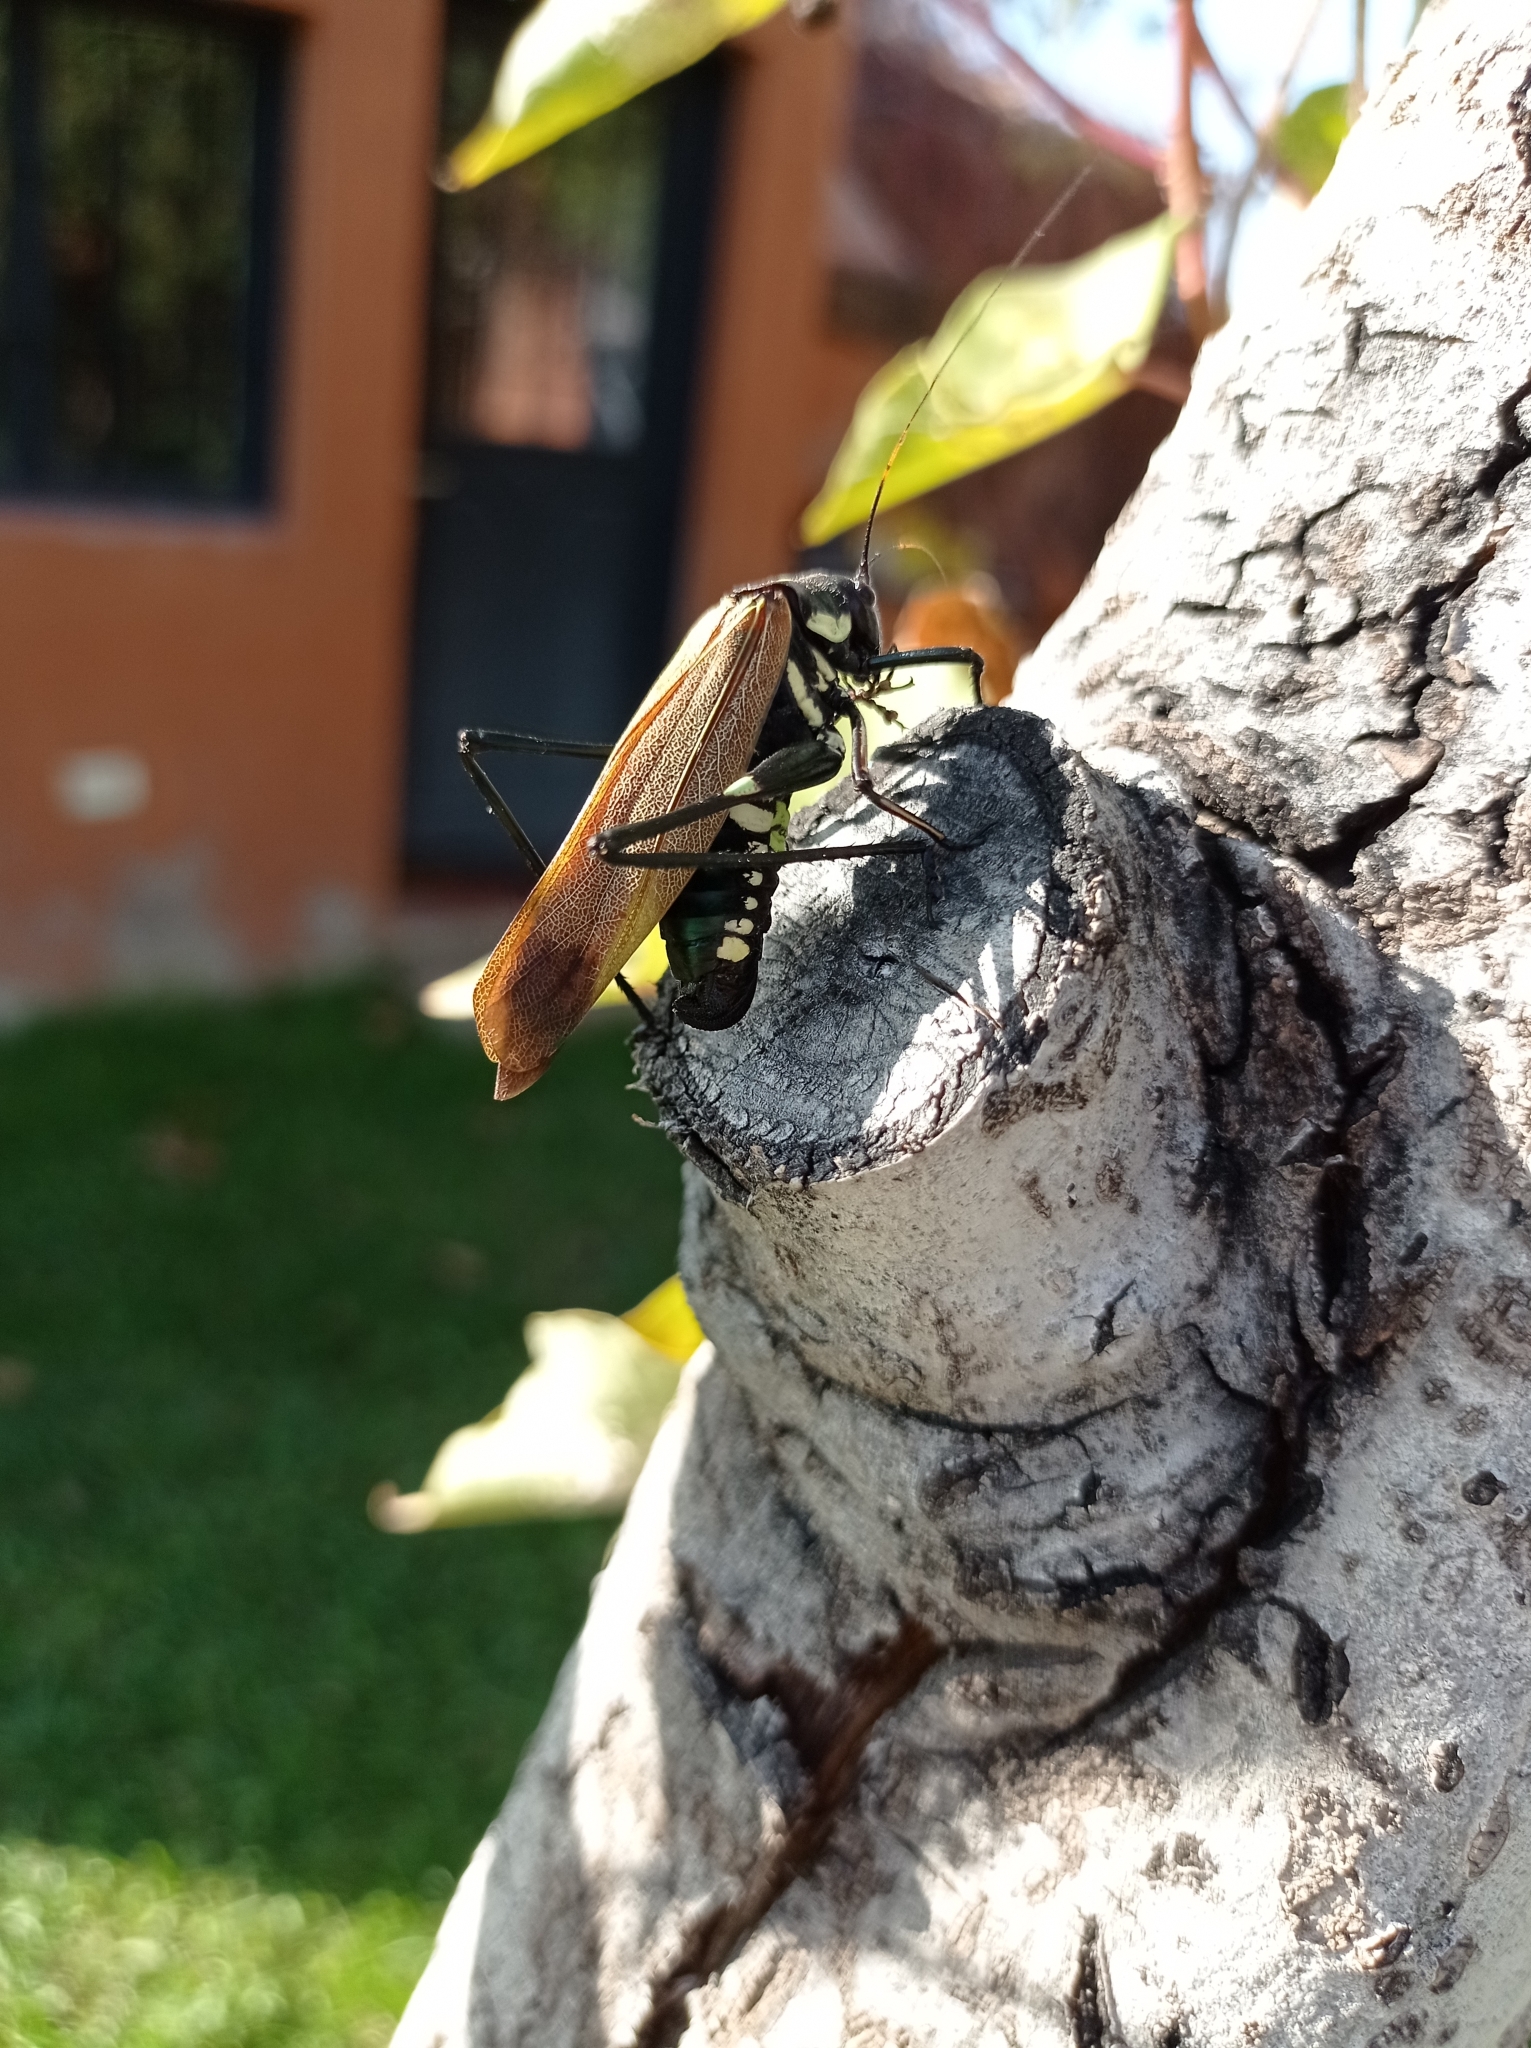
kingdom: Animalia
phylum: Arthropoda
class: Insecta
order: Orthoptera
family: Tettigoniidae
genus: Scaphura
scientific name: Scaphura elegans
